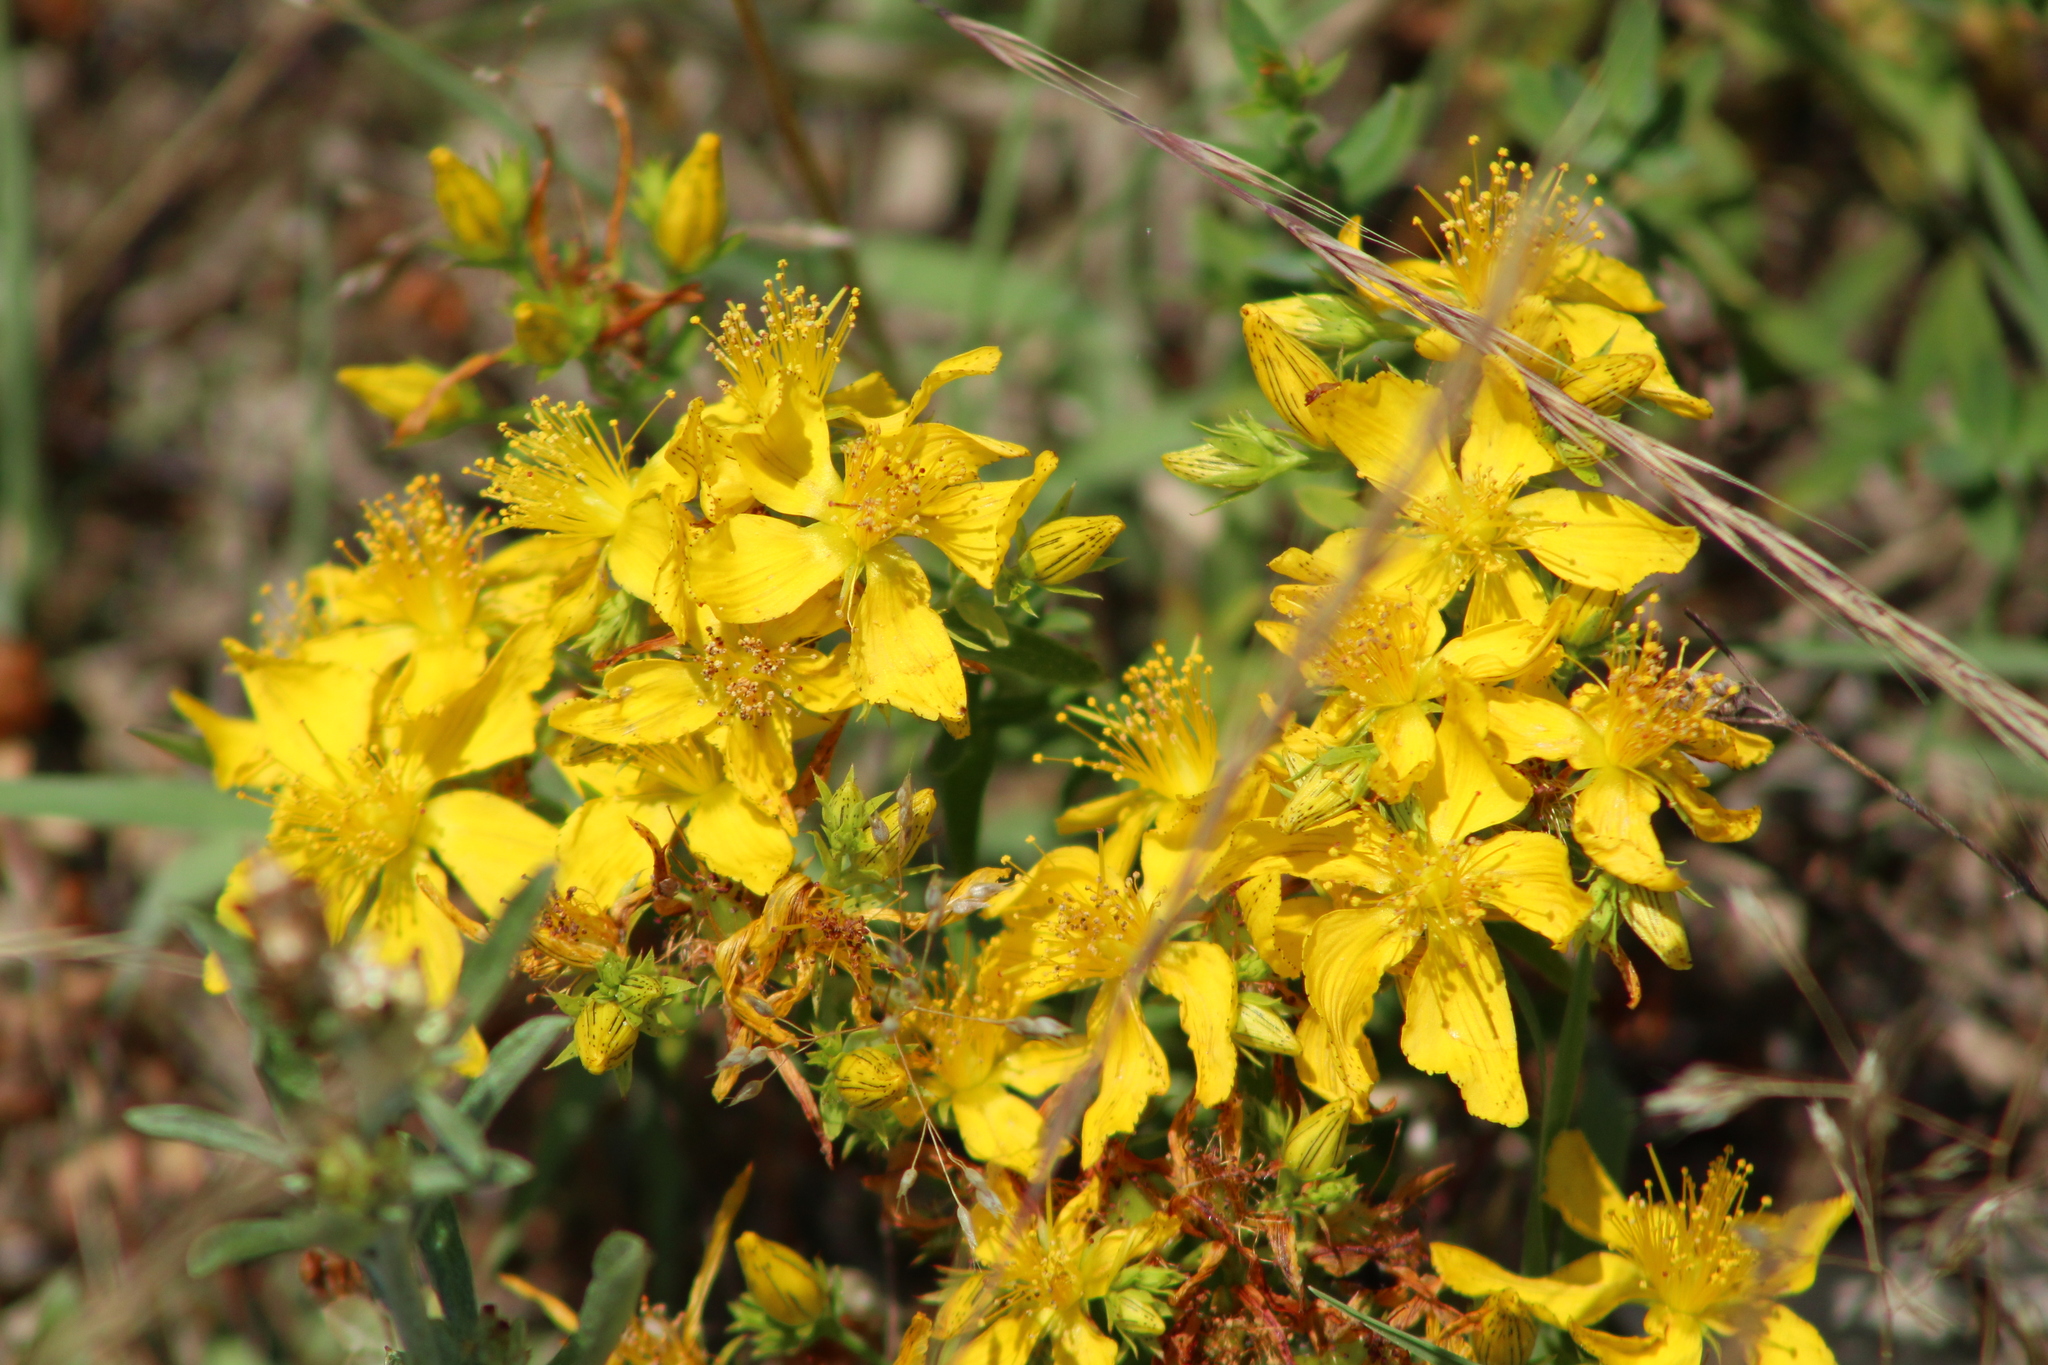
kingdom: Plantae
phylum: Tracheophyta
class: Magnoliopsida
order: Malpighiales
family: Hypericaceae
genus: Hypericum
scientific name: Hypericum perforatum
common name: Common st. johnswort
